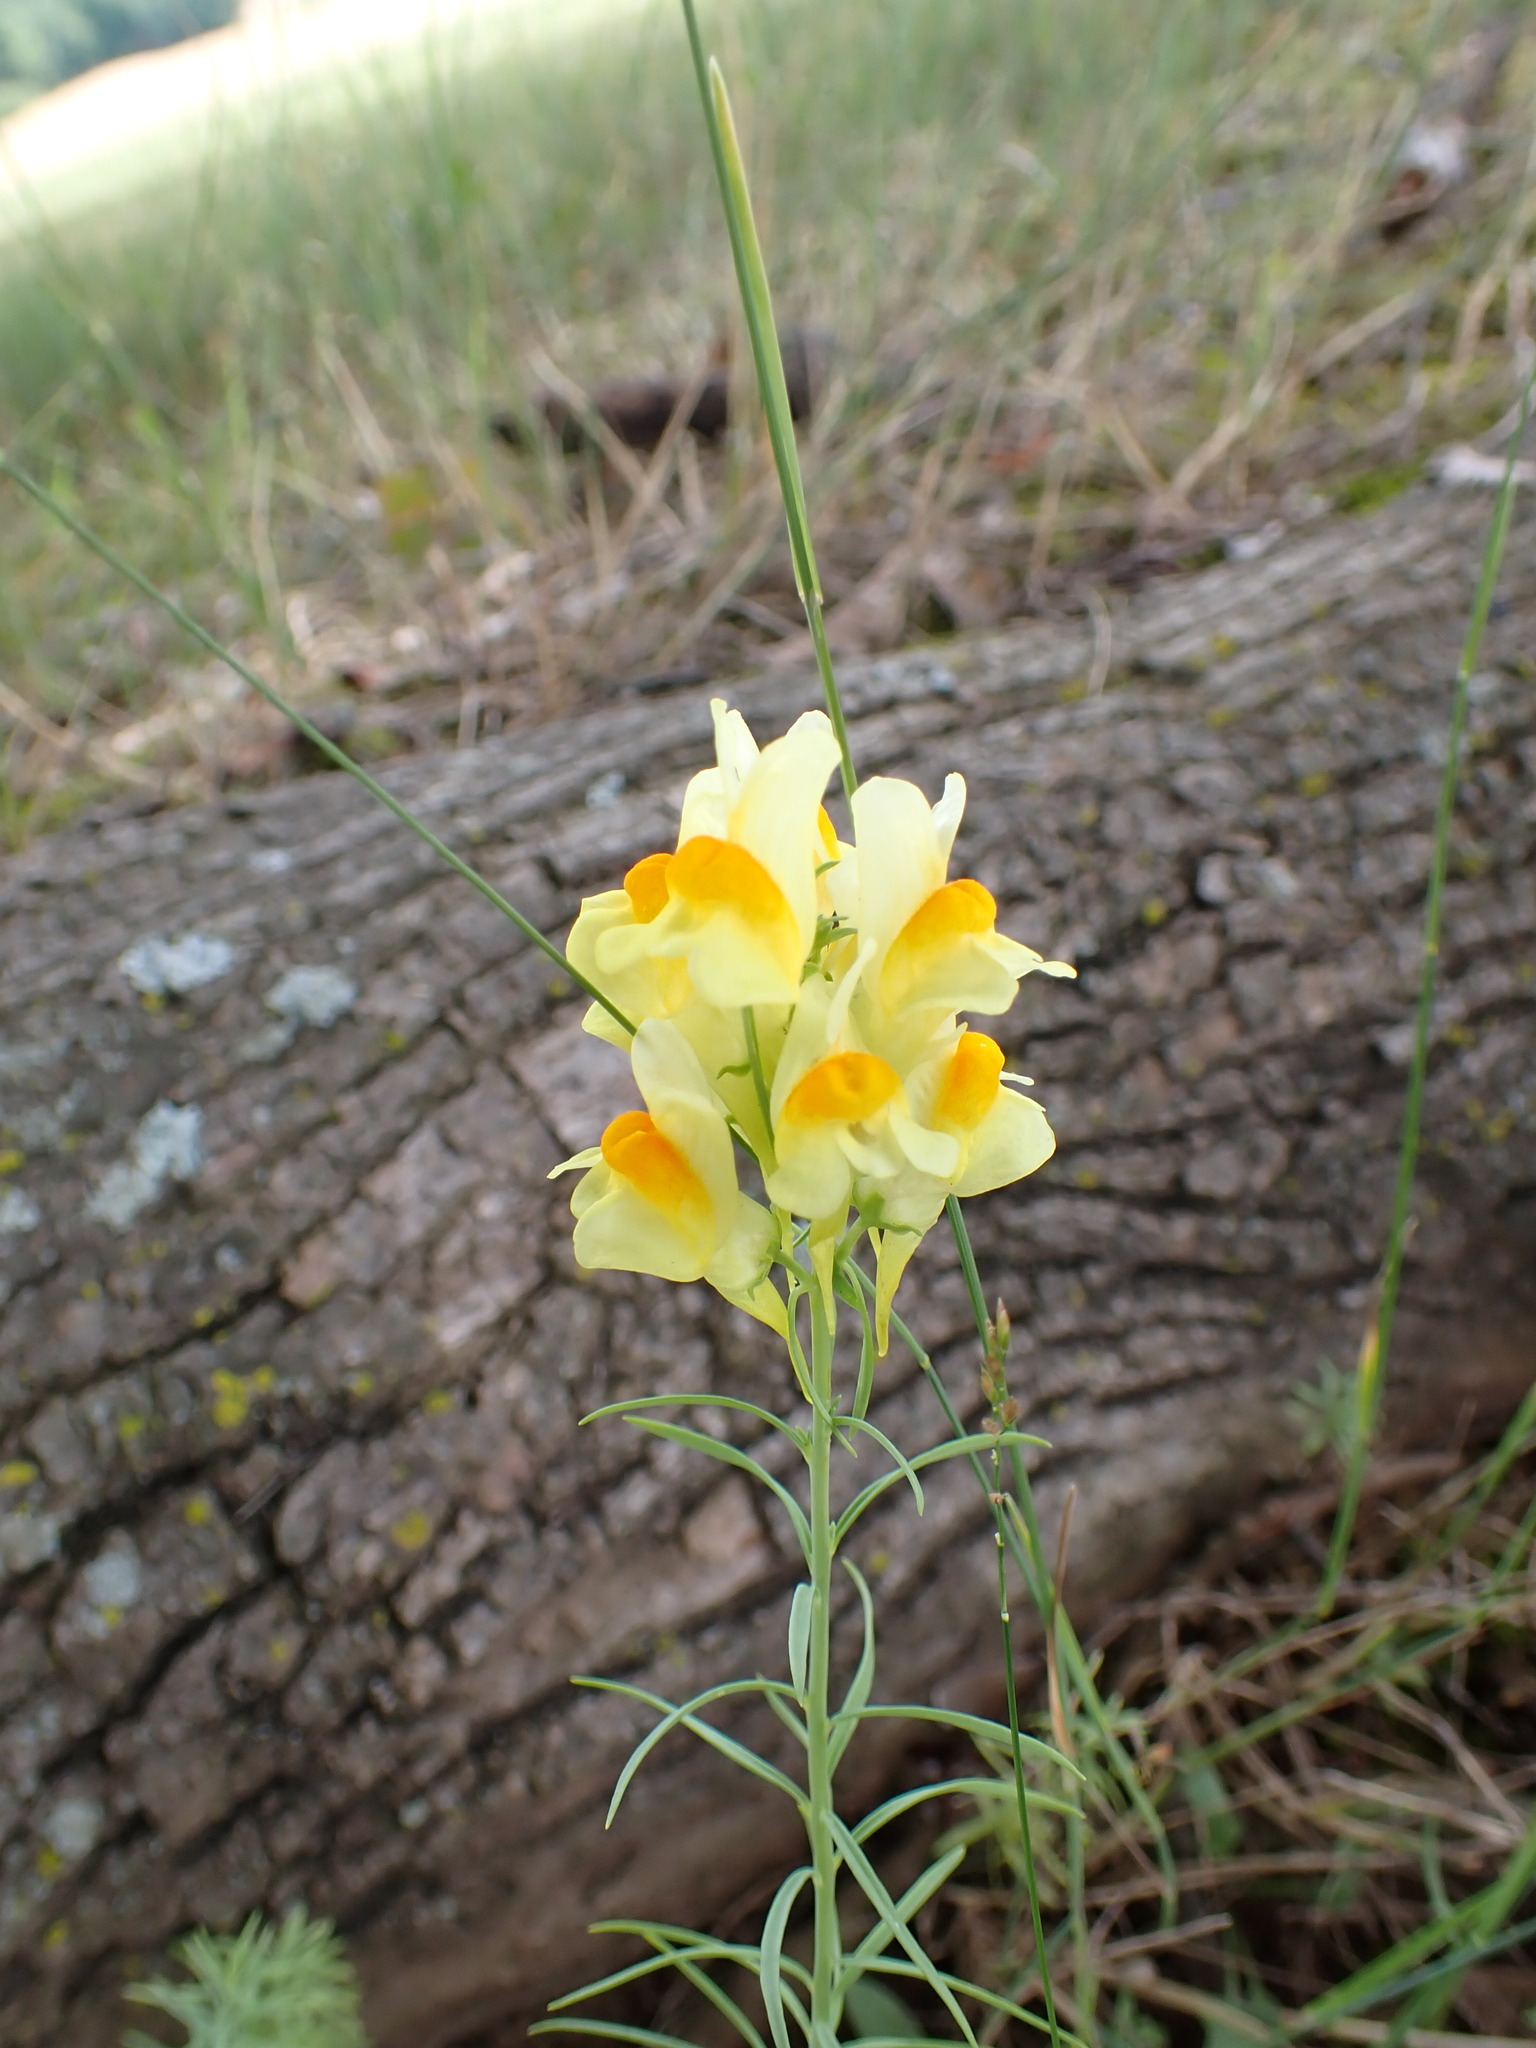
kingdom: Plantae
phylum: Tracheophyta
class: Magnoliopsida
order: Lamiales
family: Plantaginaceae
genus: Linaria
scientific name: Linaria vulgaris
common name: Butter and eggs
